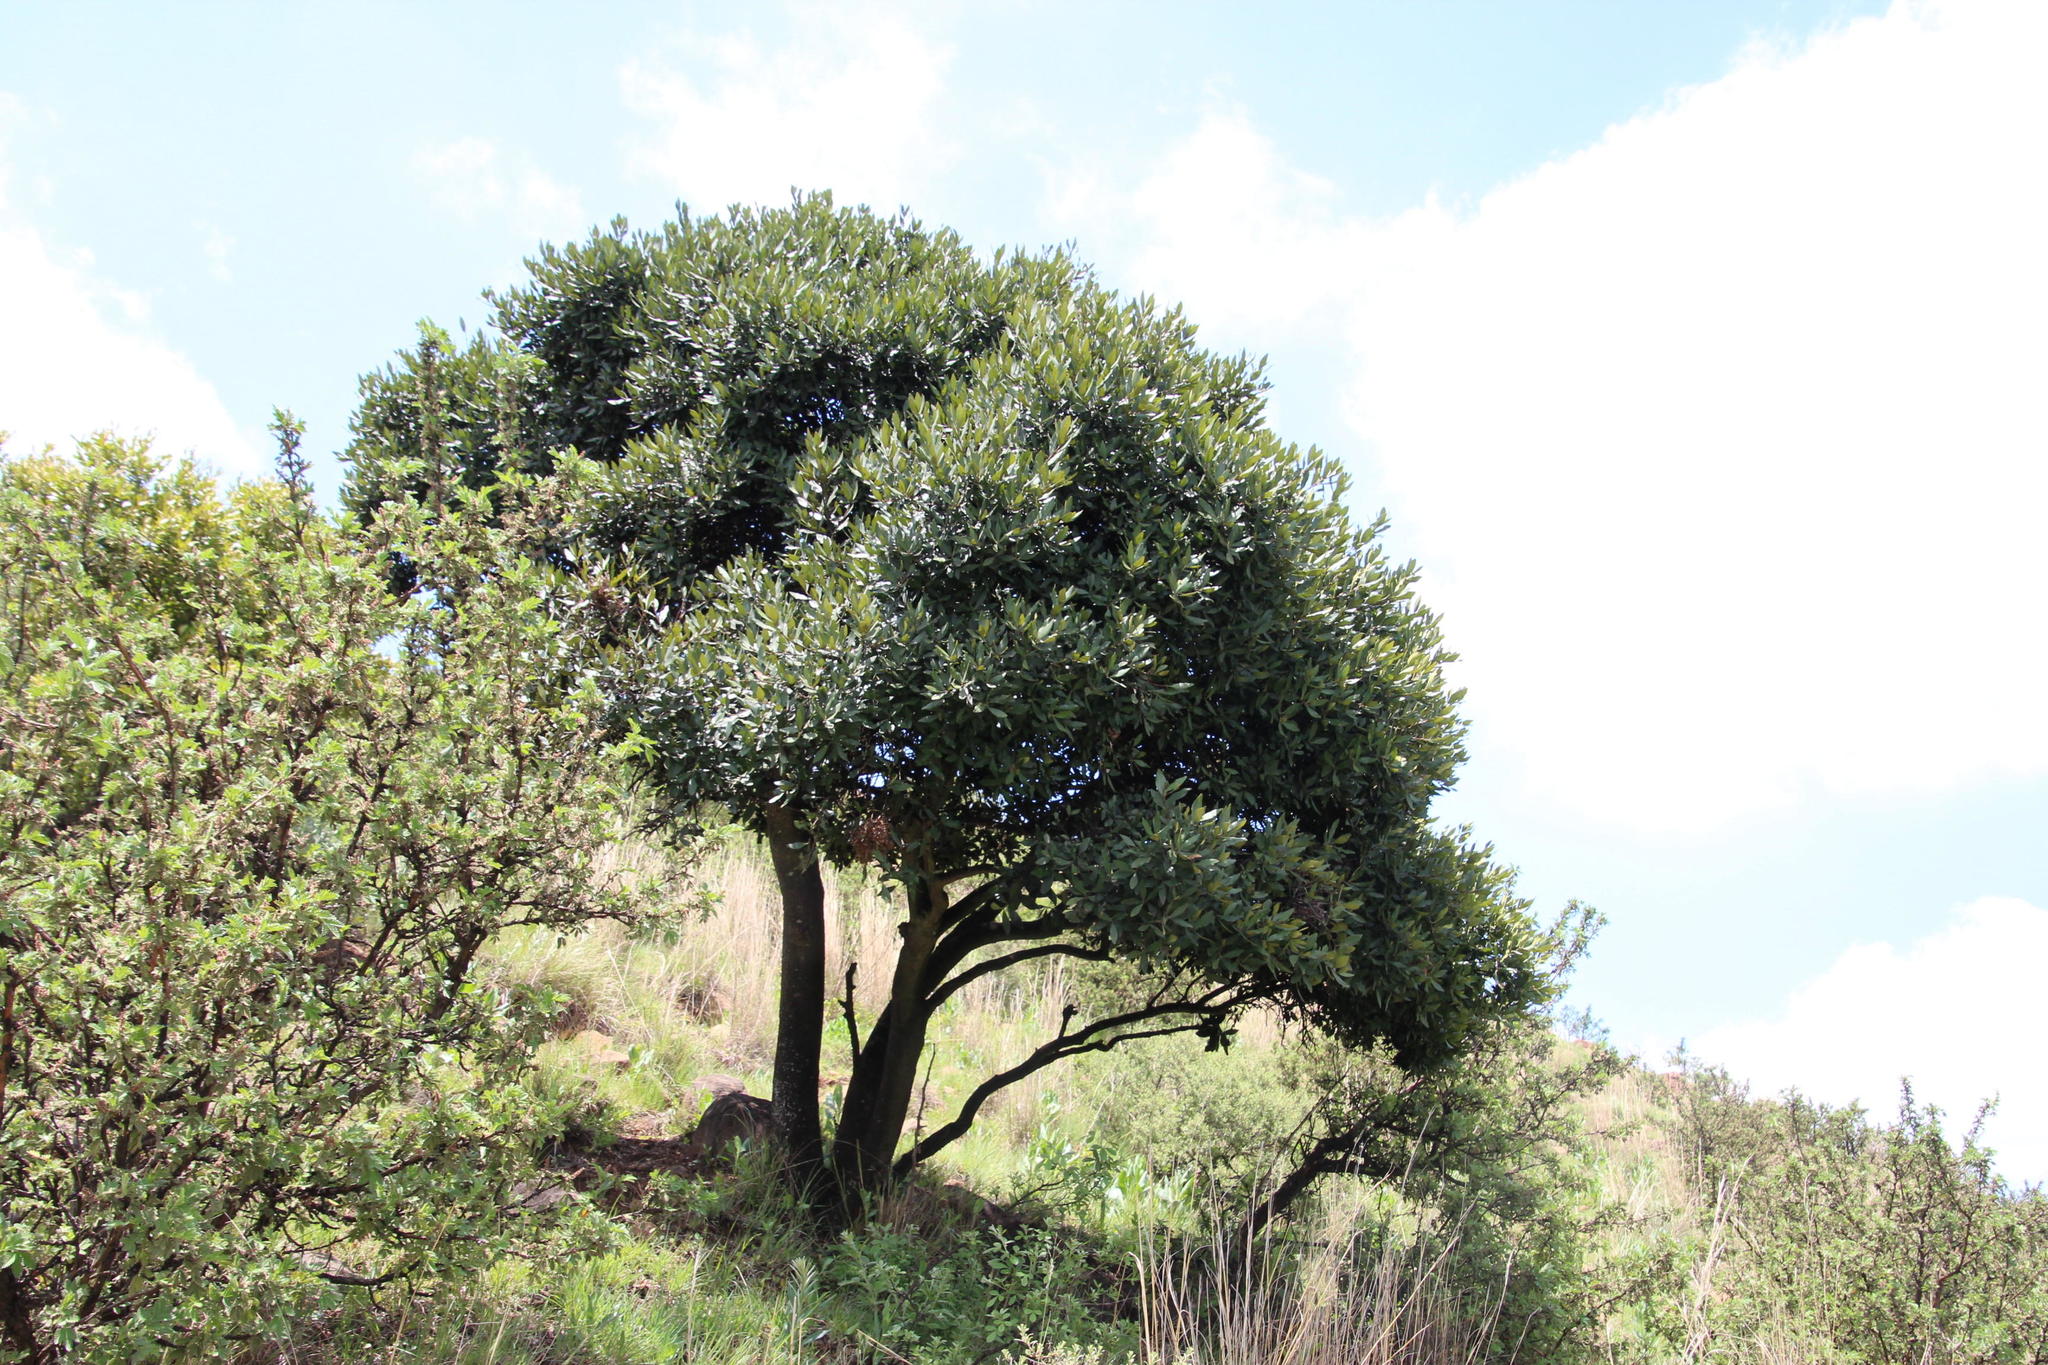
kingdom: Plantae
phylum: Tracheophyta
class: Magnoliopsida
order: Ericales
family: Ebenaceae
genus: Euclea
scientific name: Euclea crispa
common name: Blue guarri
